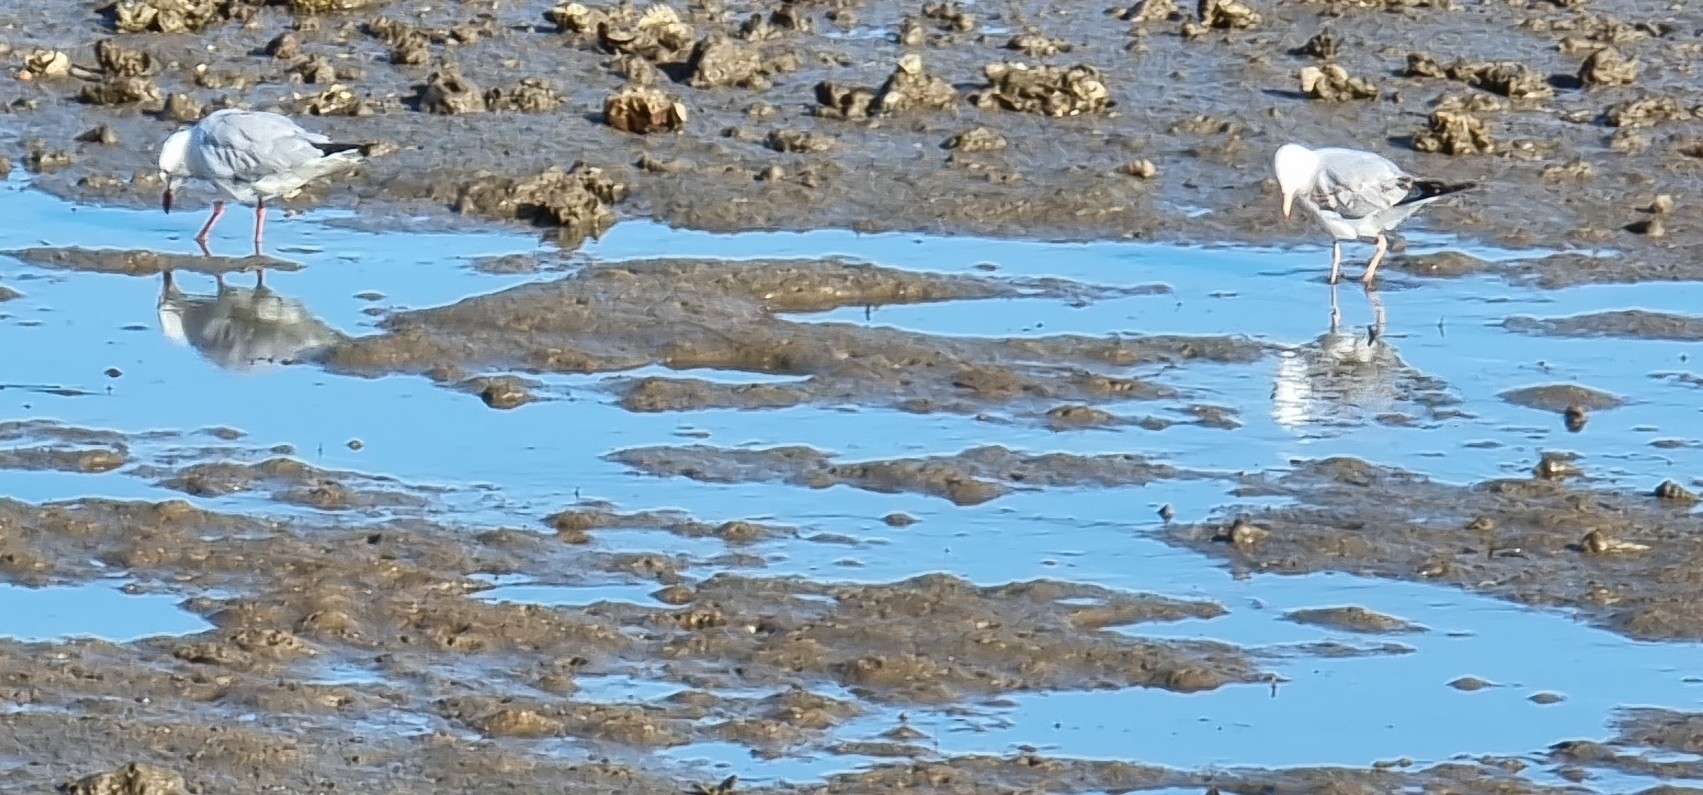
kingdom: Animalia
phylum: Chordata
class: Aves
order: Charadriiformes
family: Laridae
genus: Chroicocephalus
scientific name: Chroicocephalus novaehollandiae
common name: Silver gull
